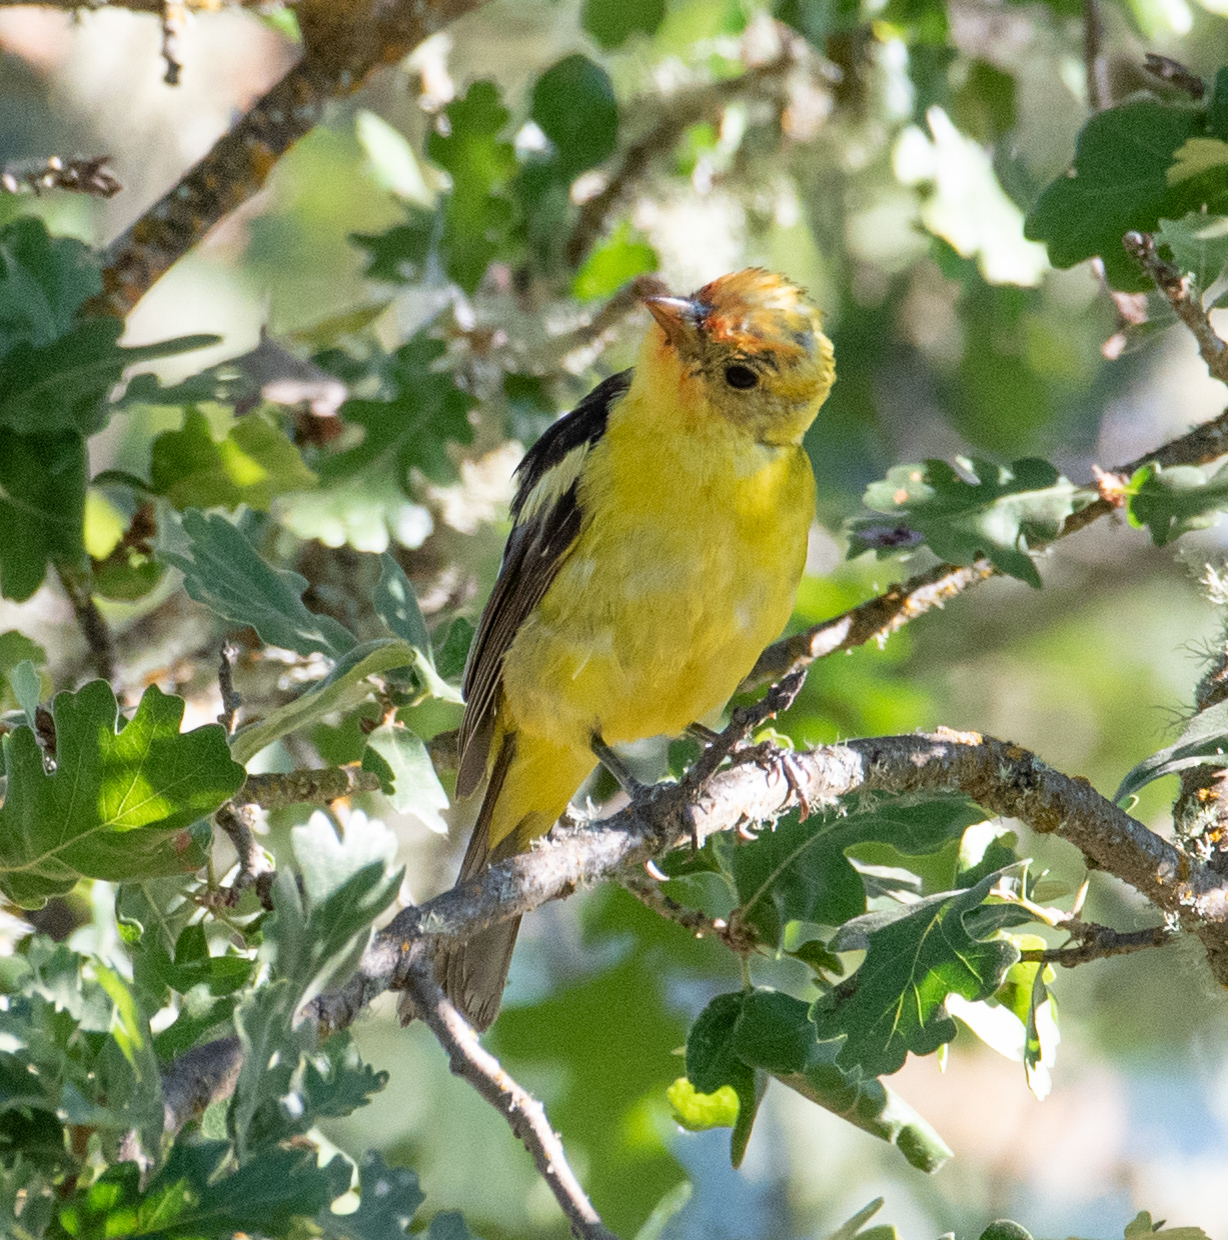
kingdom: Animalia
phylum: Chordata
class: Aves
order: Passeriformes
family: Cardinalidae
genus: Piranga
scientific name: Piranga ludoviciana
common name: Western tanager
